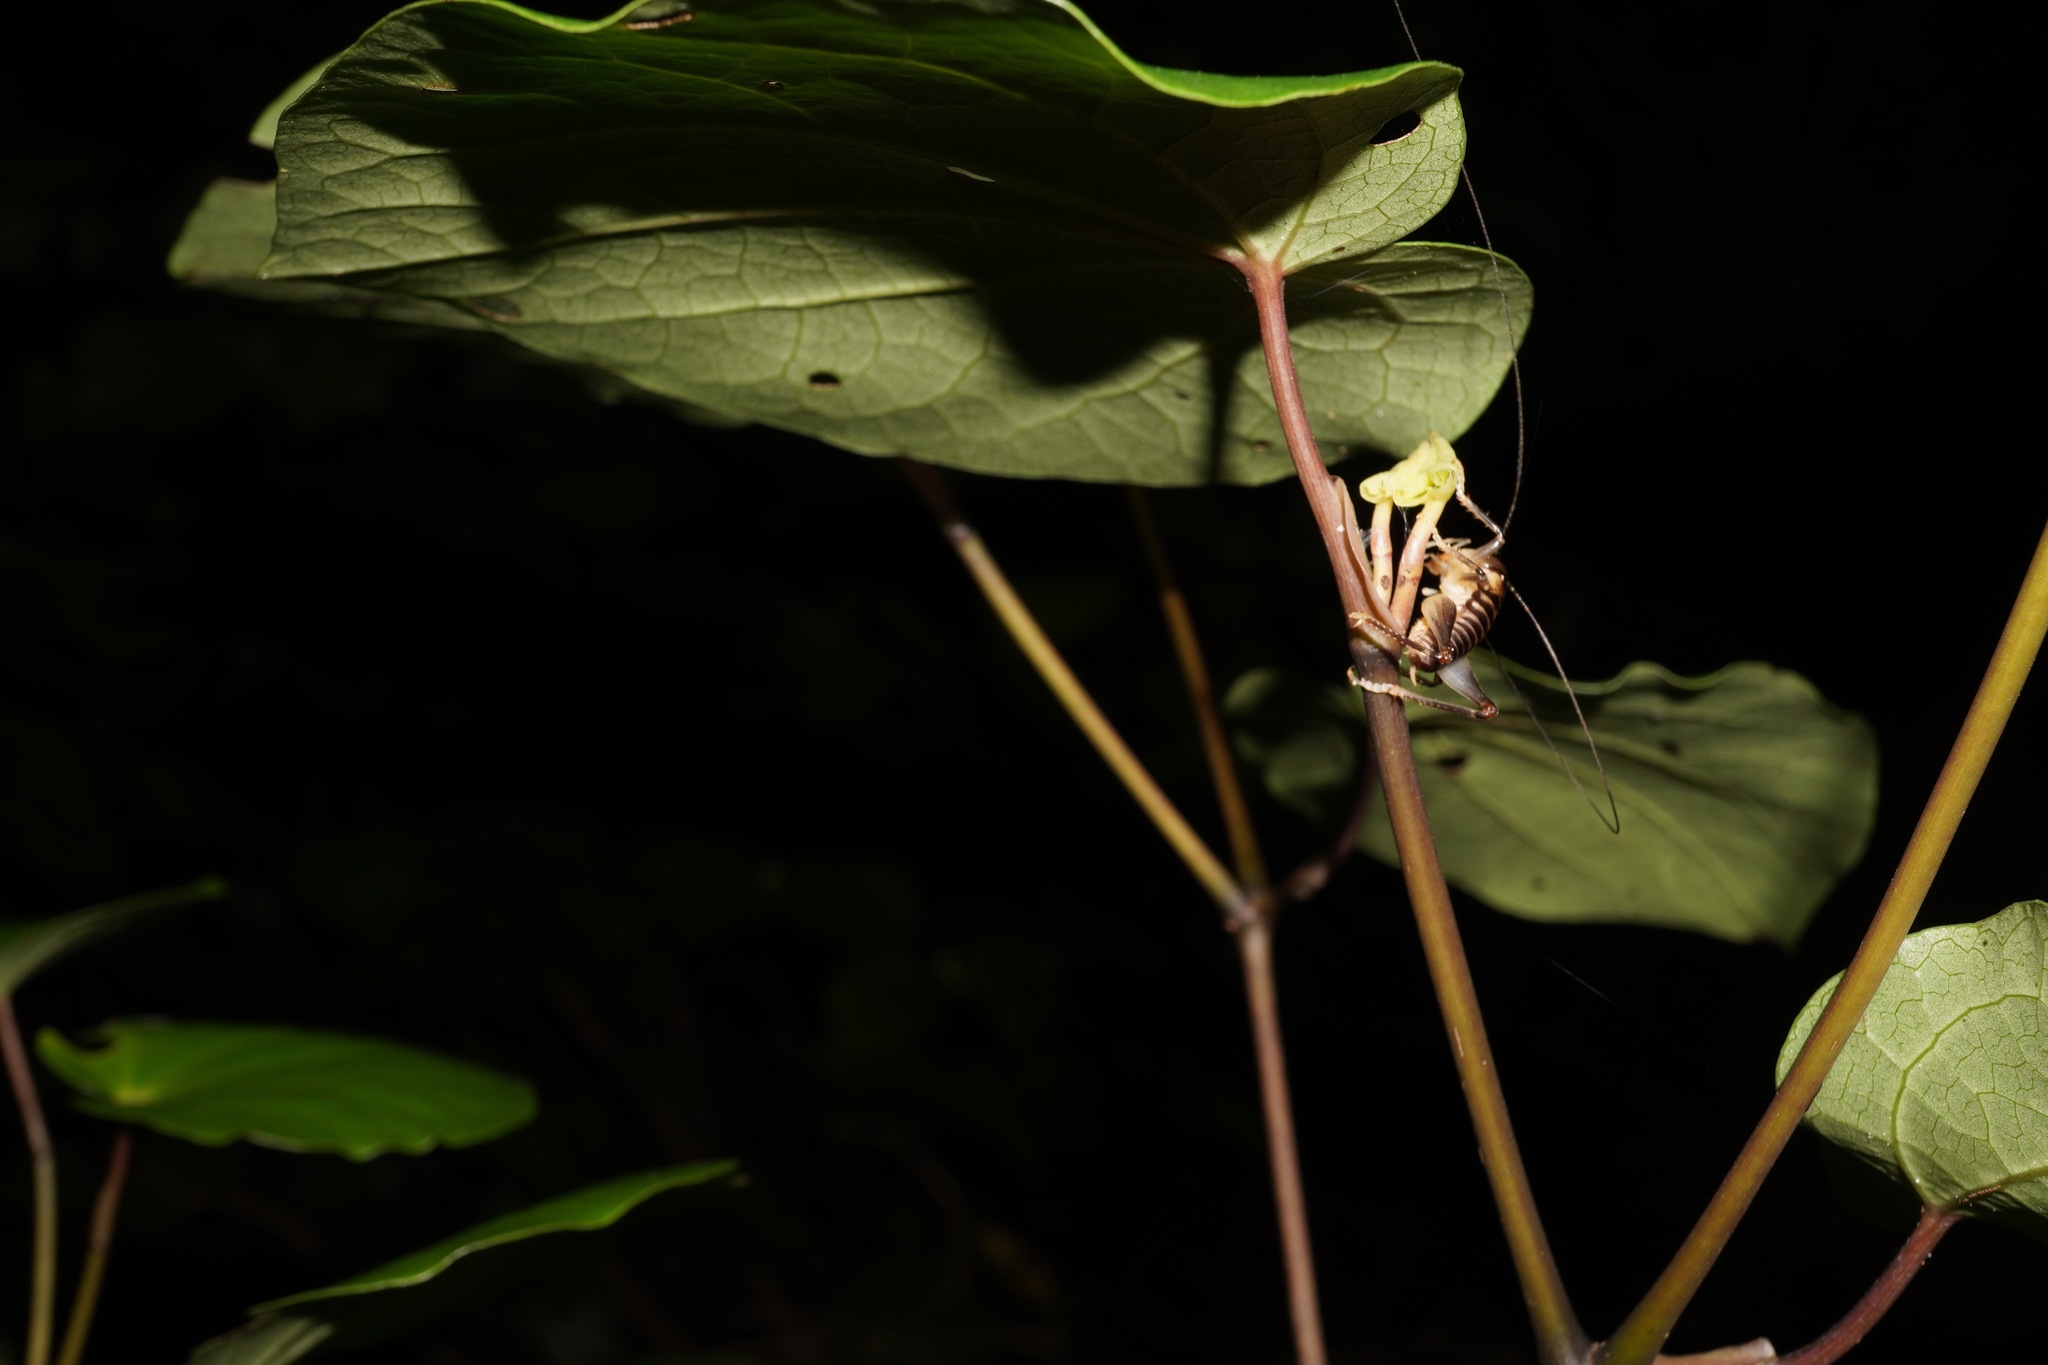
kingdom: Animalia
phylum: Arthropoda
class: Insecta
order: Orthoptera
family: Anostostomatidae
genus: Hemiandrus
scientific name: Hemiandrus pallitarsis
